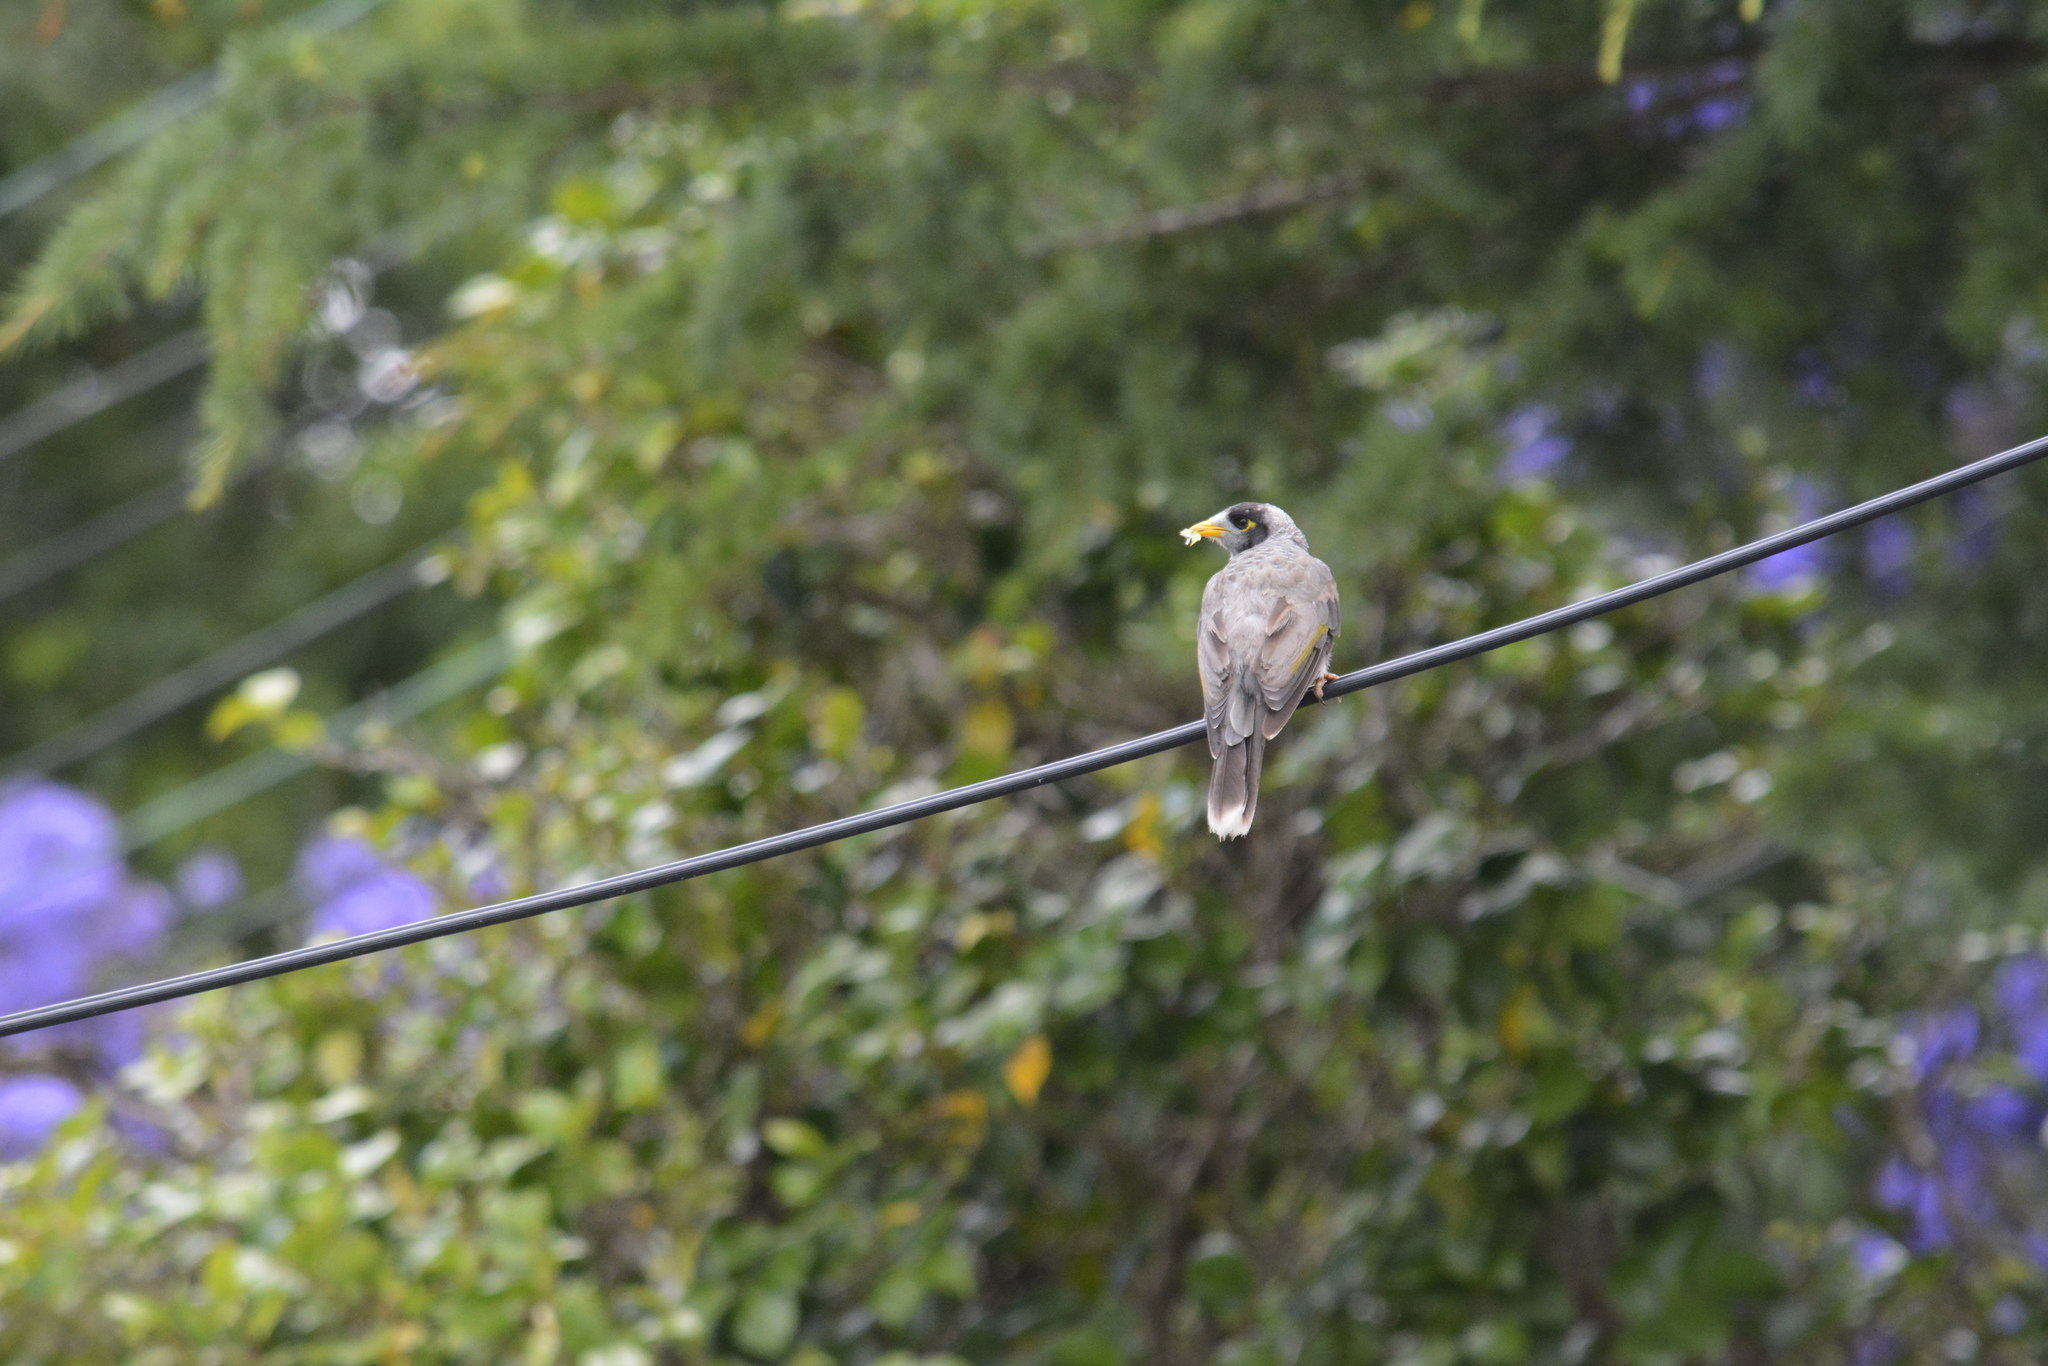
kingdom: Animalia
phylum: Chordata
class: Aves
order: Passeriformes
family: Meliphagidae
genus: Manorina
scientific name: Manorina melanocephala
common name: Noisy miner
